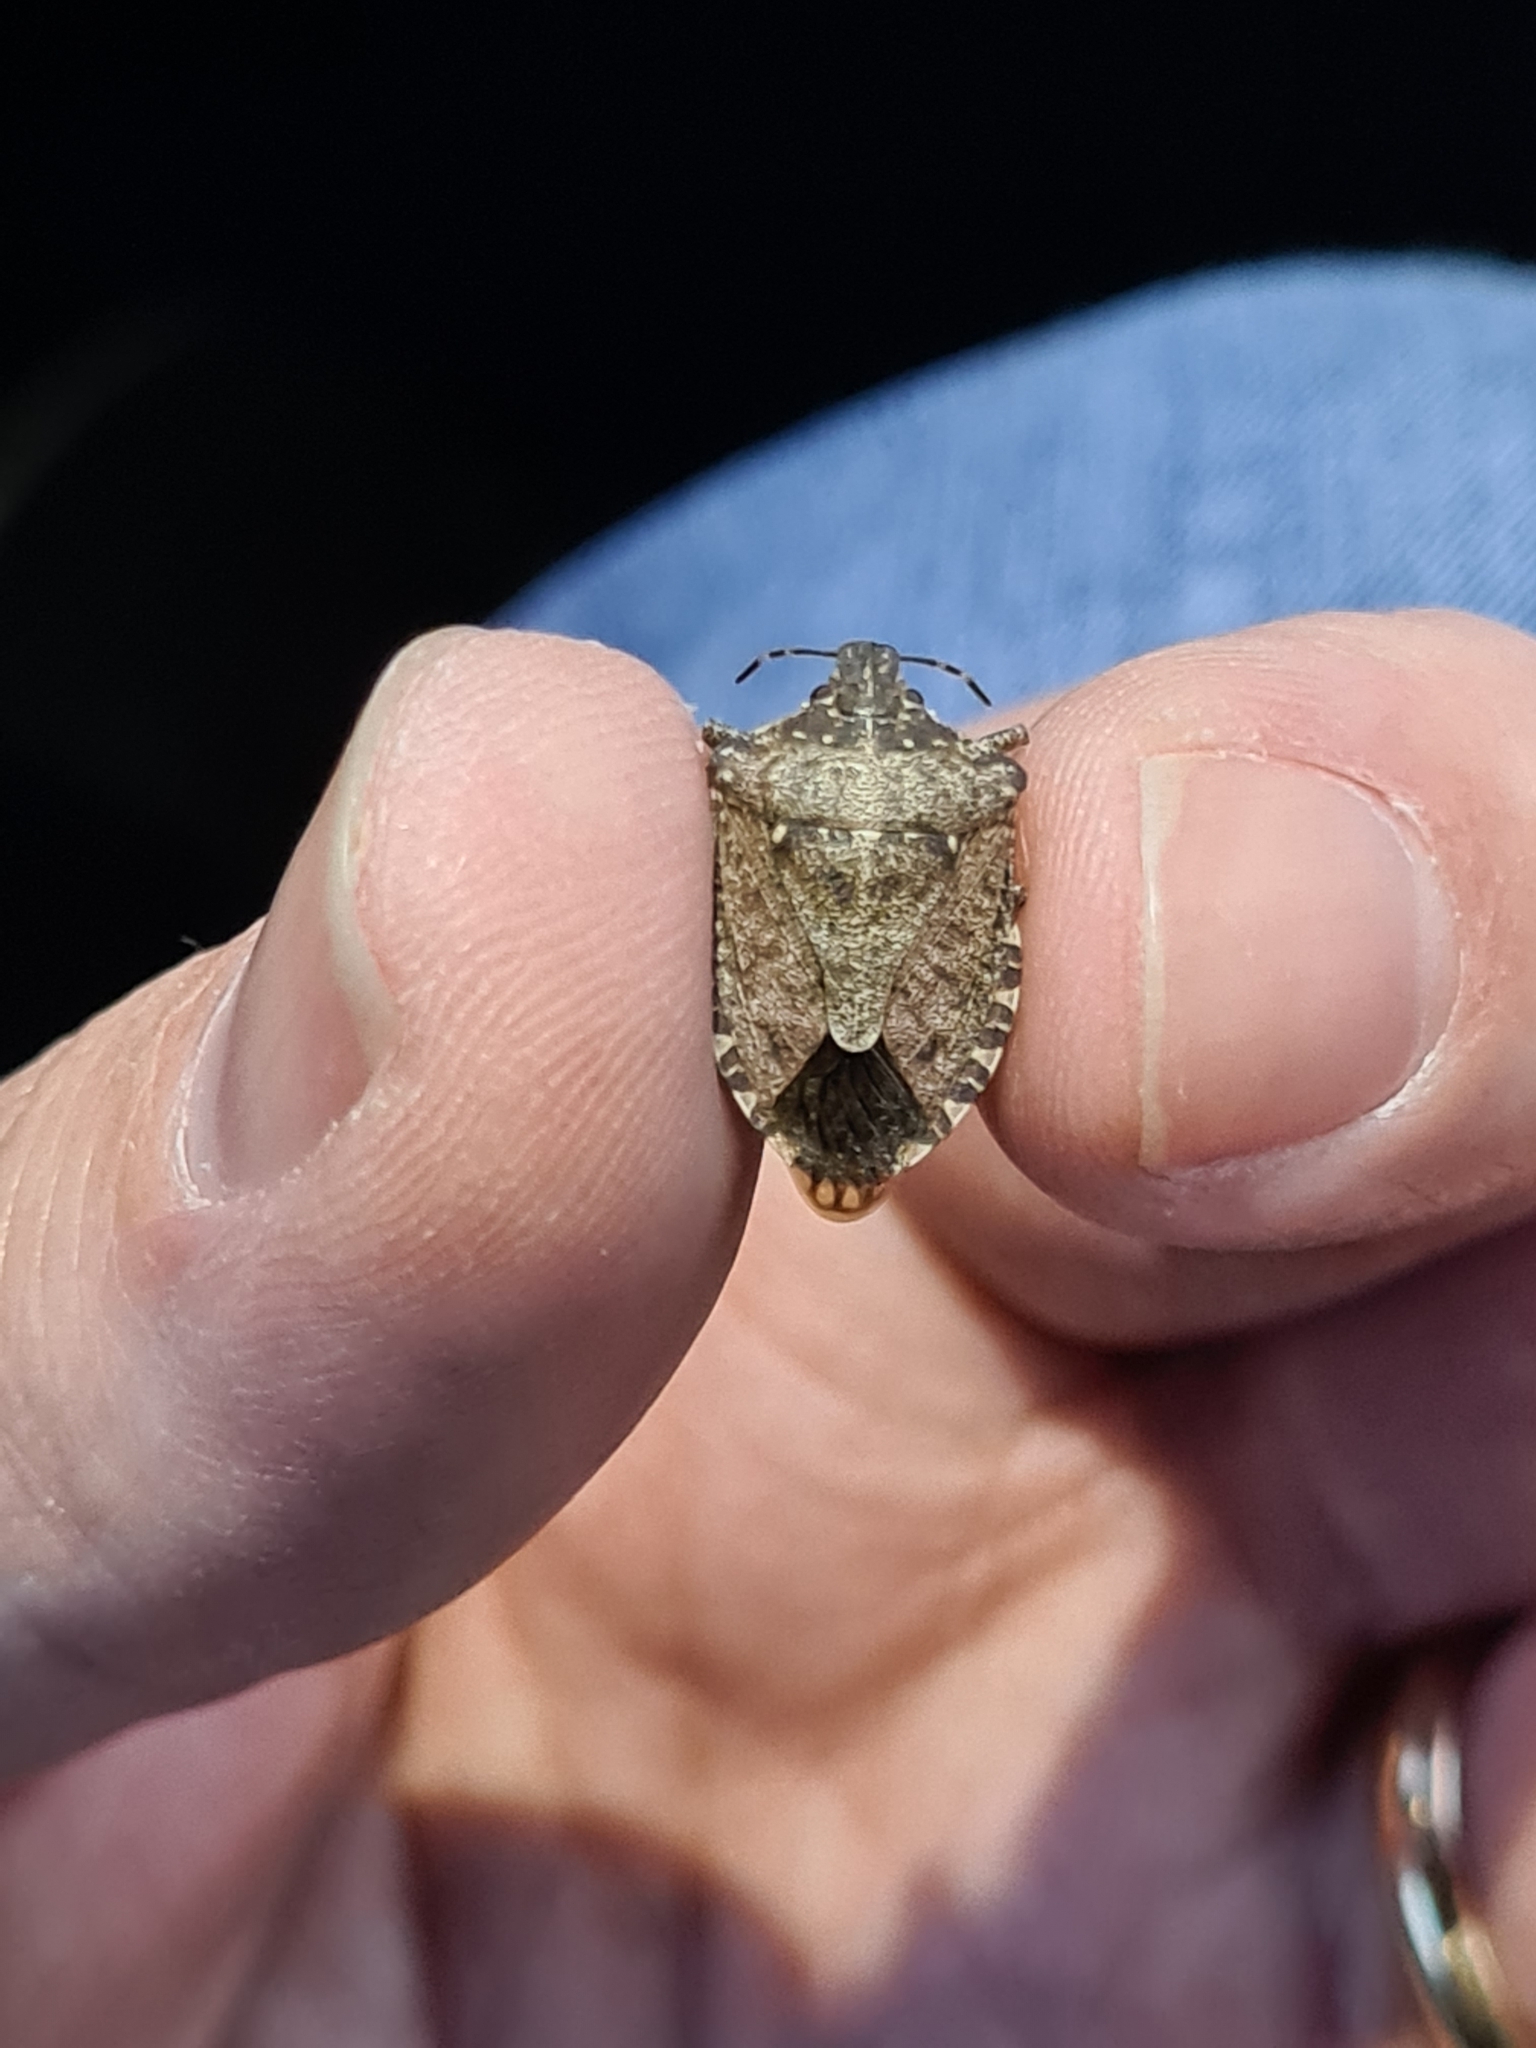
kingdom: Animalia
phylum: Arthropoda
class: Insecta
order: Hemiptera
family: Pentatomidae
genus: Halyomorpha
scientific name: Halyomorpha halys
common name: Brown marmorated stink bug
